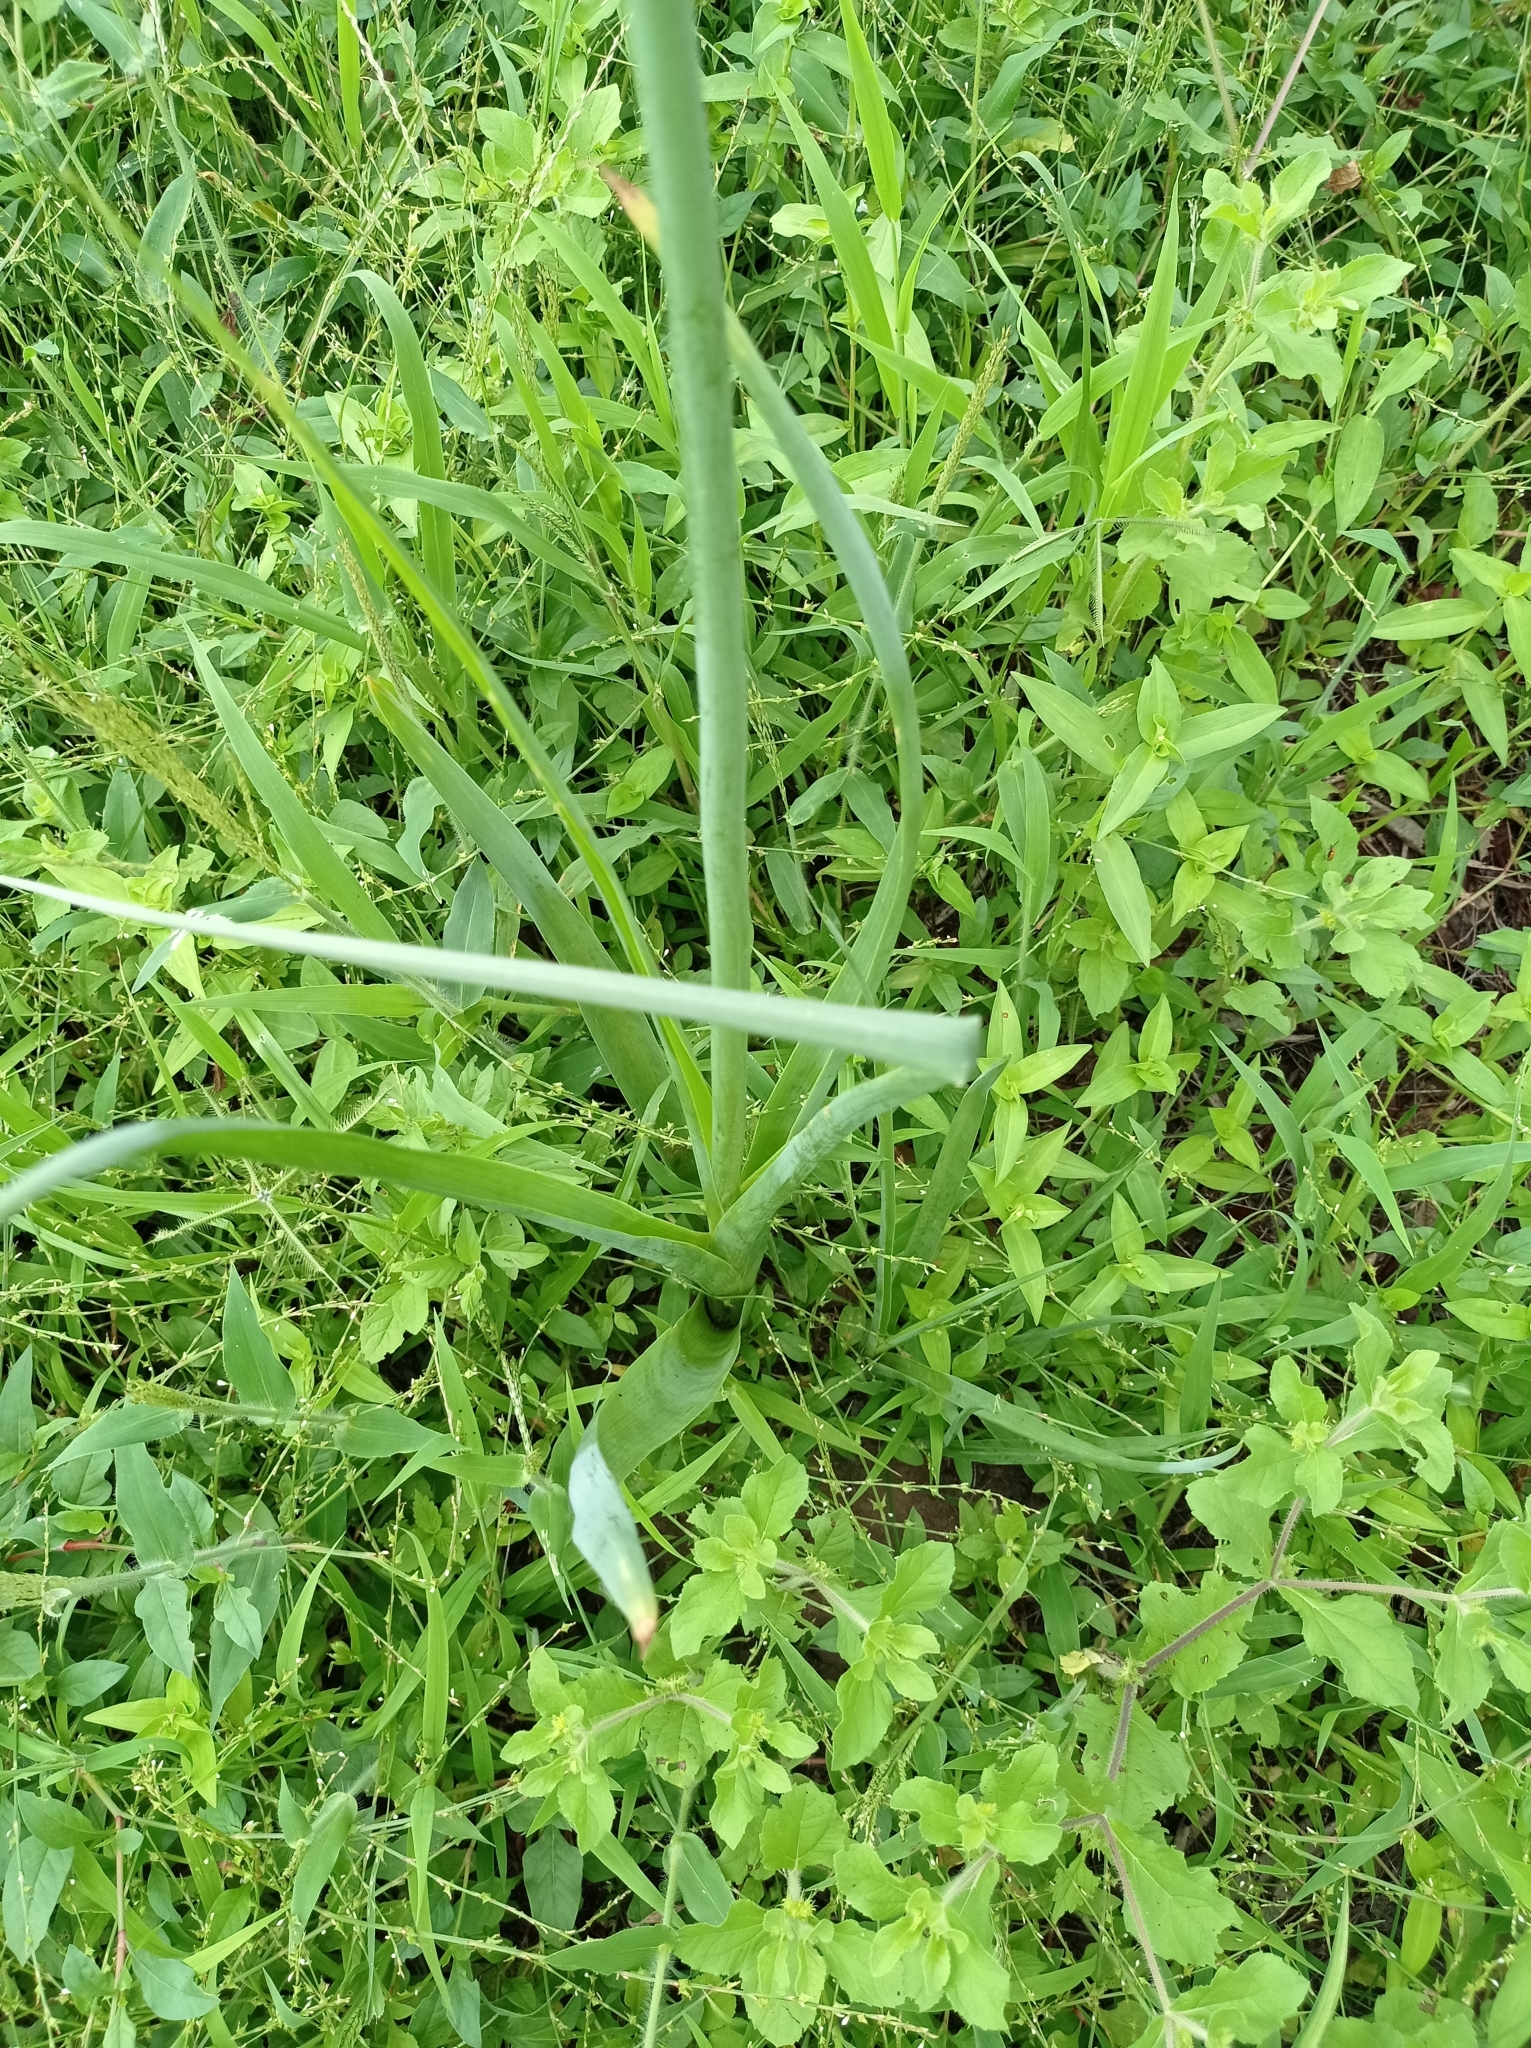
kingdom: Plantae
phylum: Tracheophyta
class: Liliopsida
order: Asparagales
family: Asparagaceae
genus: Drimia
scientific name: Drimia altissima
